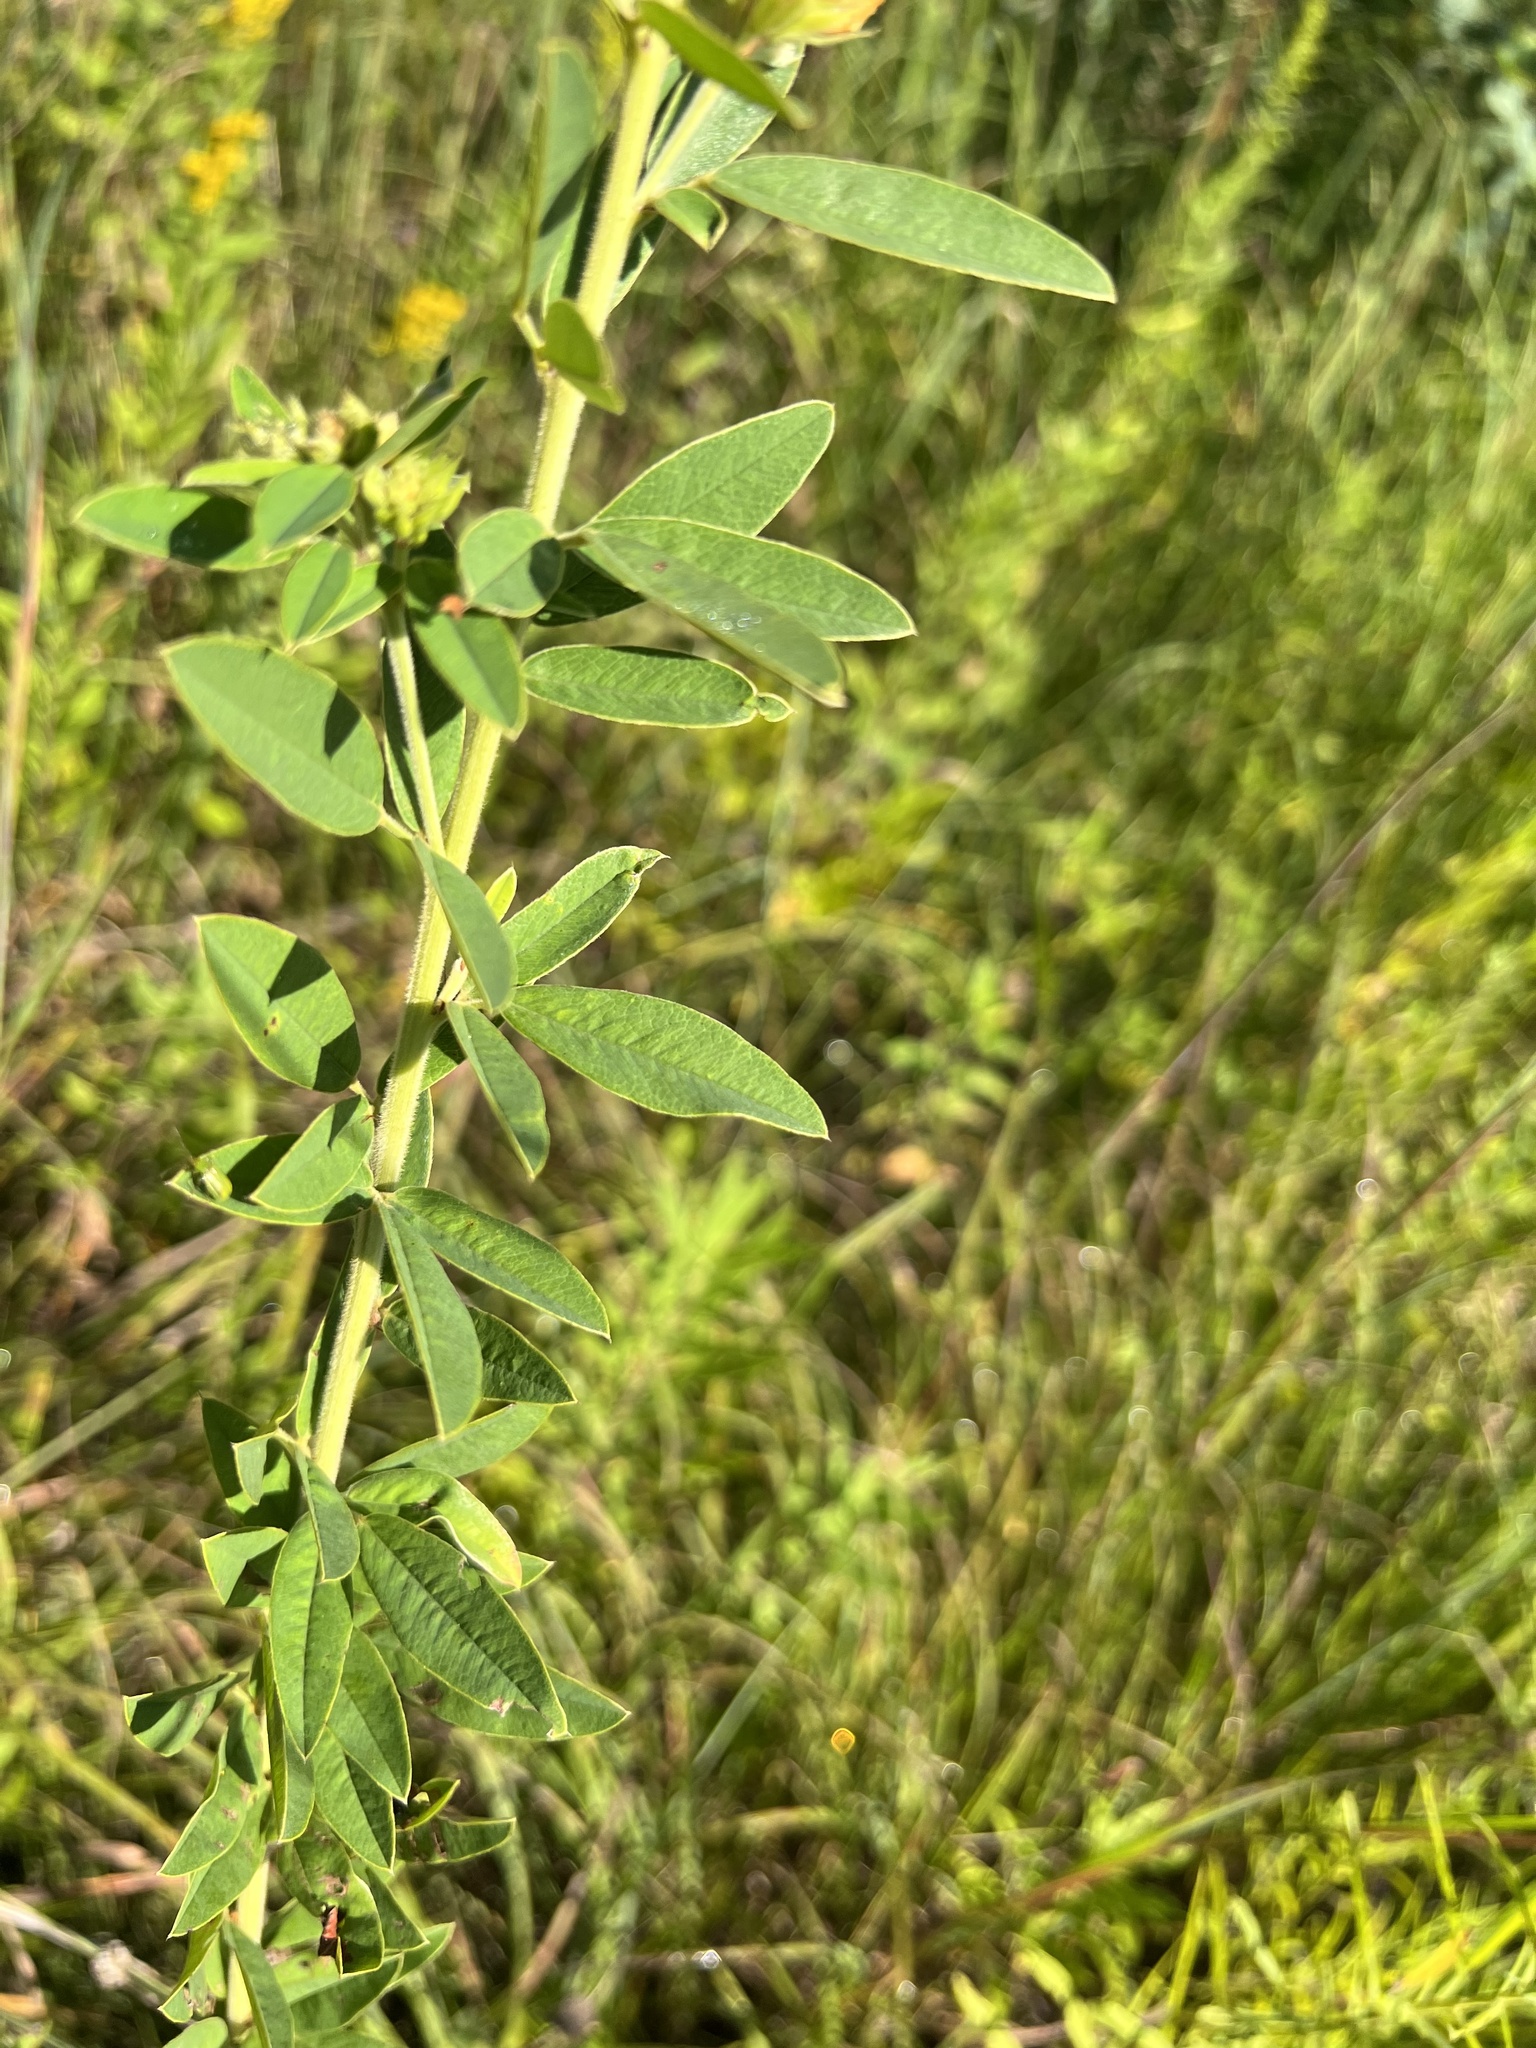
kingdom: Plantae
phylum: Tracheophyta
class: Magnoliopsida
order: Fabales
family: Fabaceae
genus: Lespedeza
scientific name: Lespedeza capitata
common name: Dusty clover
